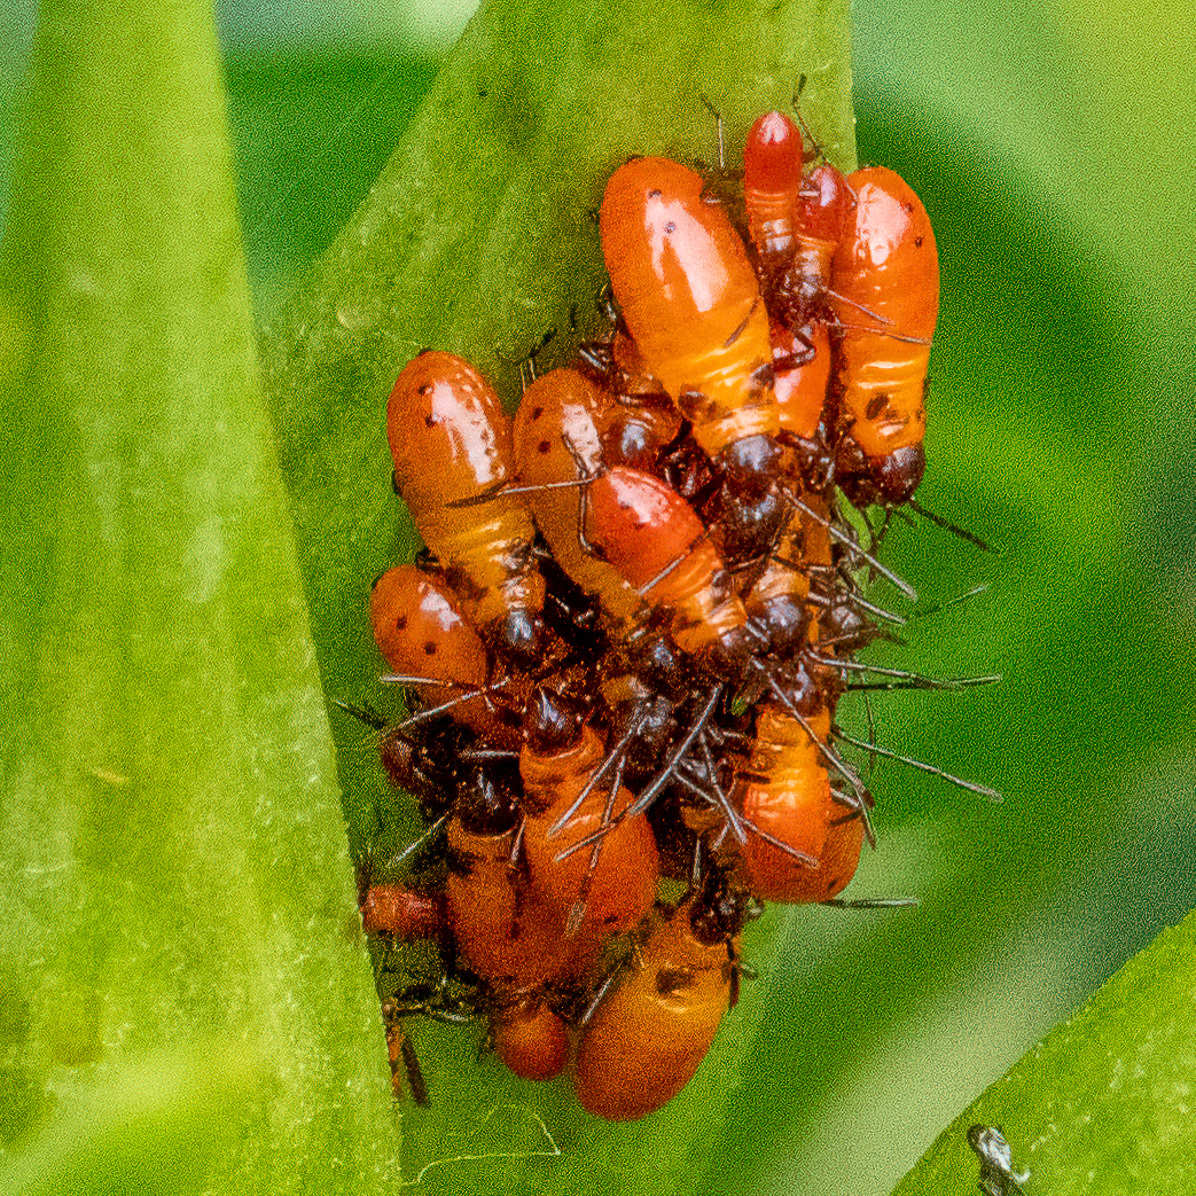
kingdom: Animalia
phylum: Arthropoda
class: Insecta
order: Hemiptera
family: Lygaeidae
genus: Oncopeltus
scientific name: Oncopeltus fasciatus
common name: Large milkweed bug
